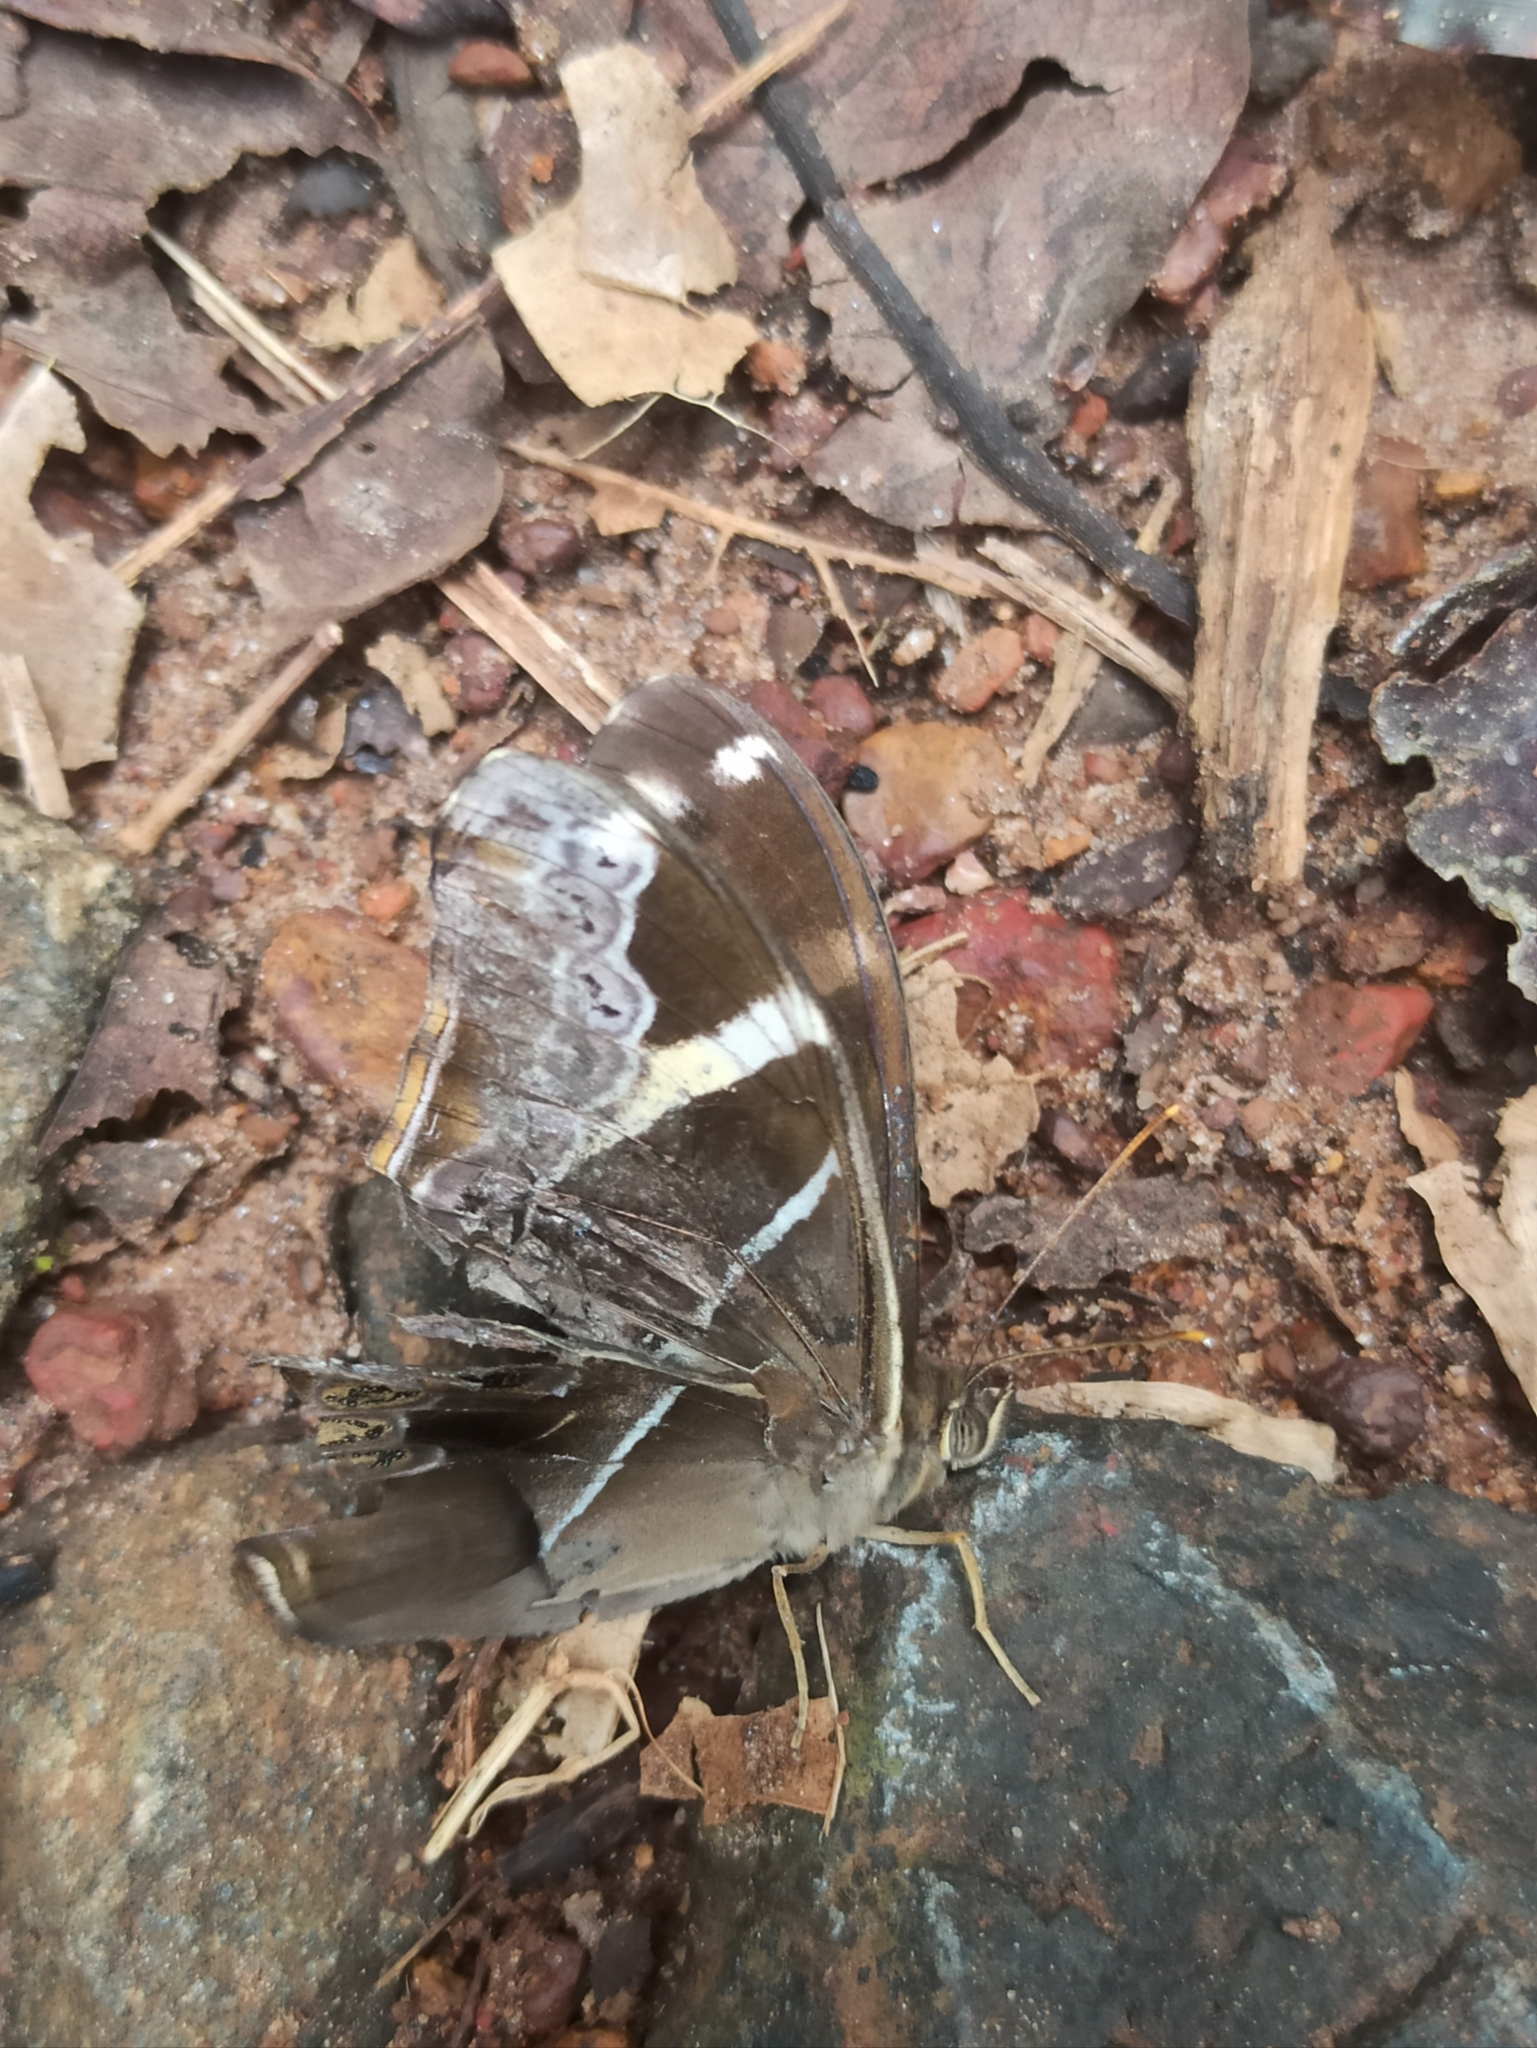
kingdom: Animalia
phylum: Arthropoda
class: Insecta
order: Lepidoptera
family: Nymphalidae
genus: Lethe
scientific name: Lethe europa
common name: Bamboo treebrown
